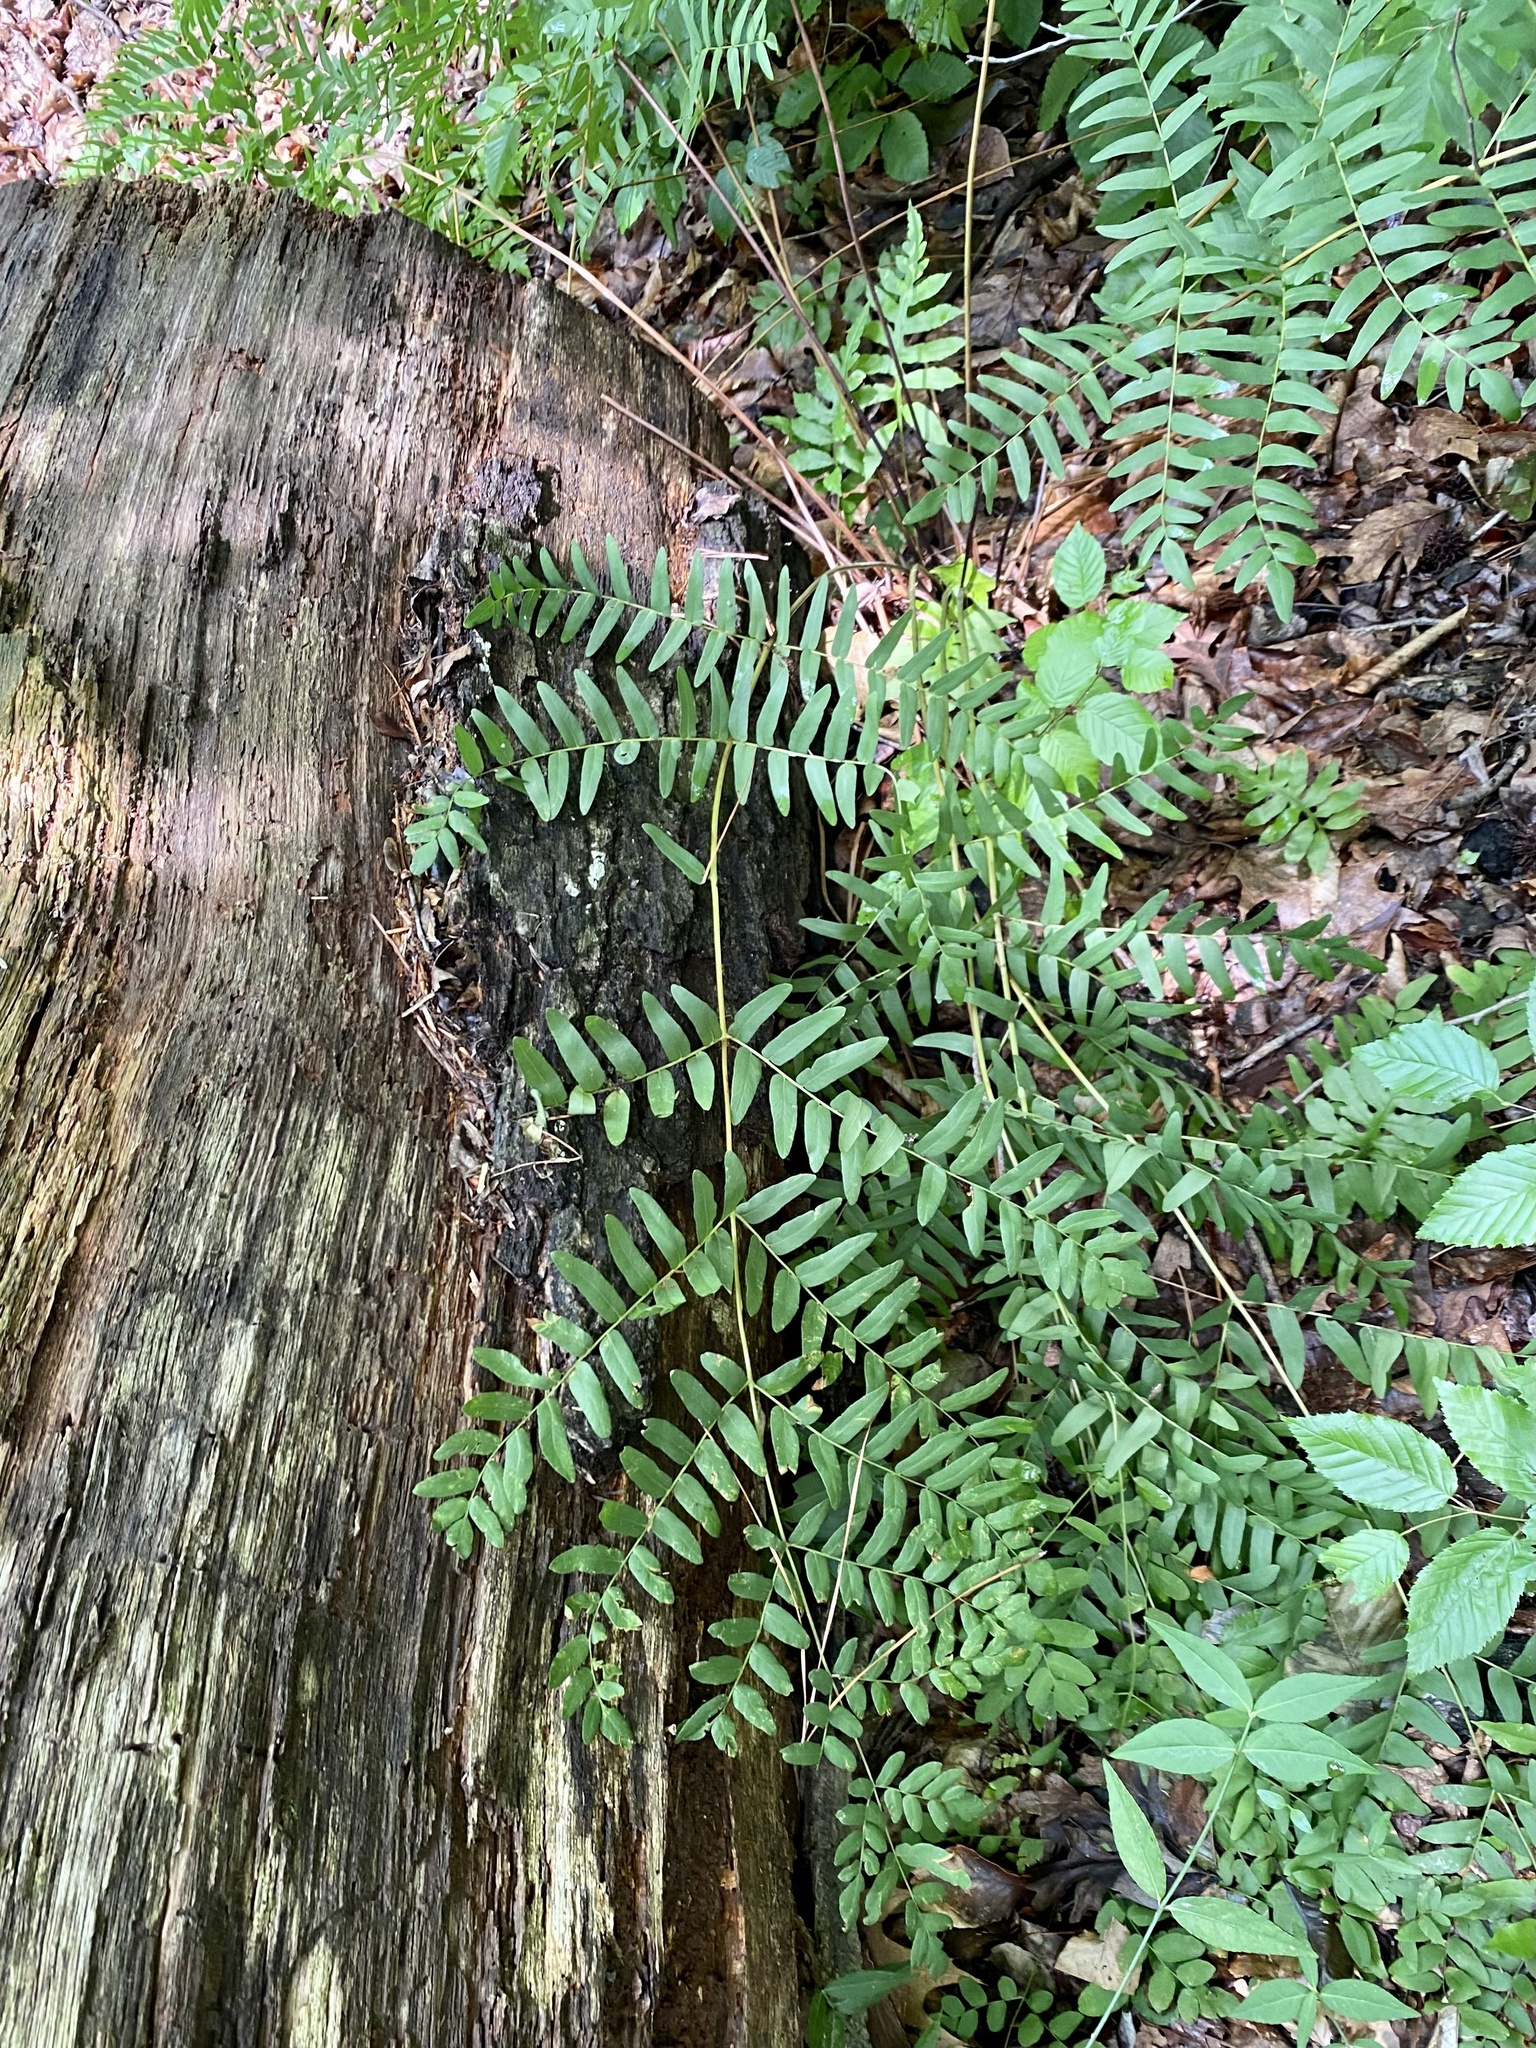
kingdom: Plantae
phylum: Tracheophyta
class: Polypodiopsida
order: Osmundales
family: Osmundaceae
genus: Osmunda
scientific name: Osmunda spectabilis
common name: American royal fern
